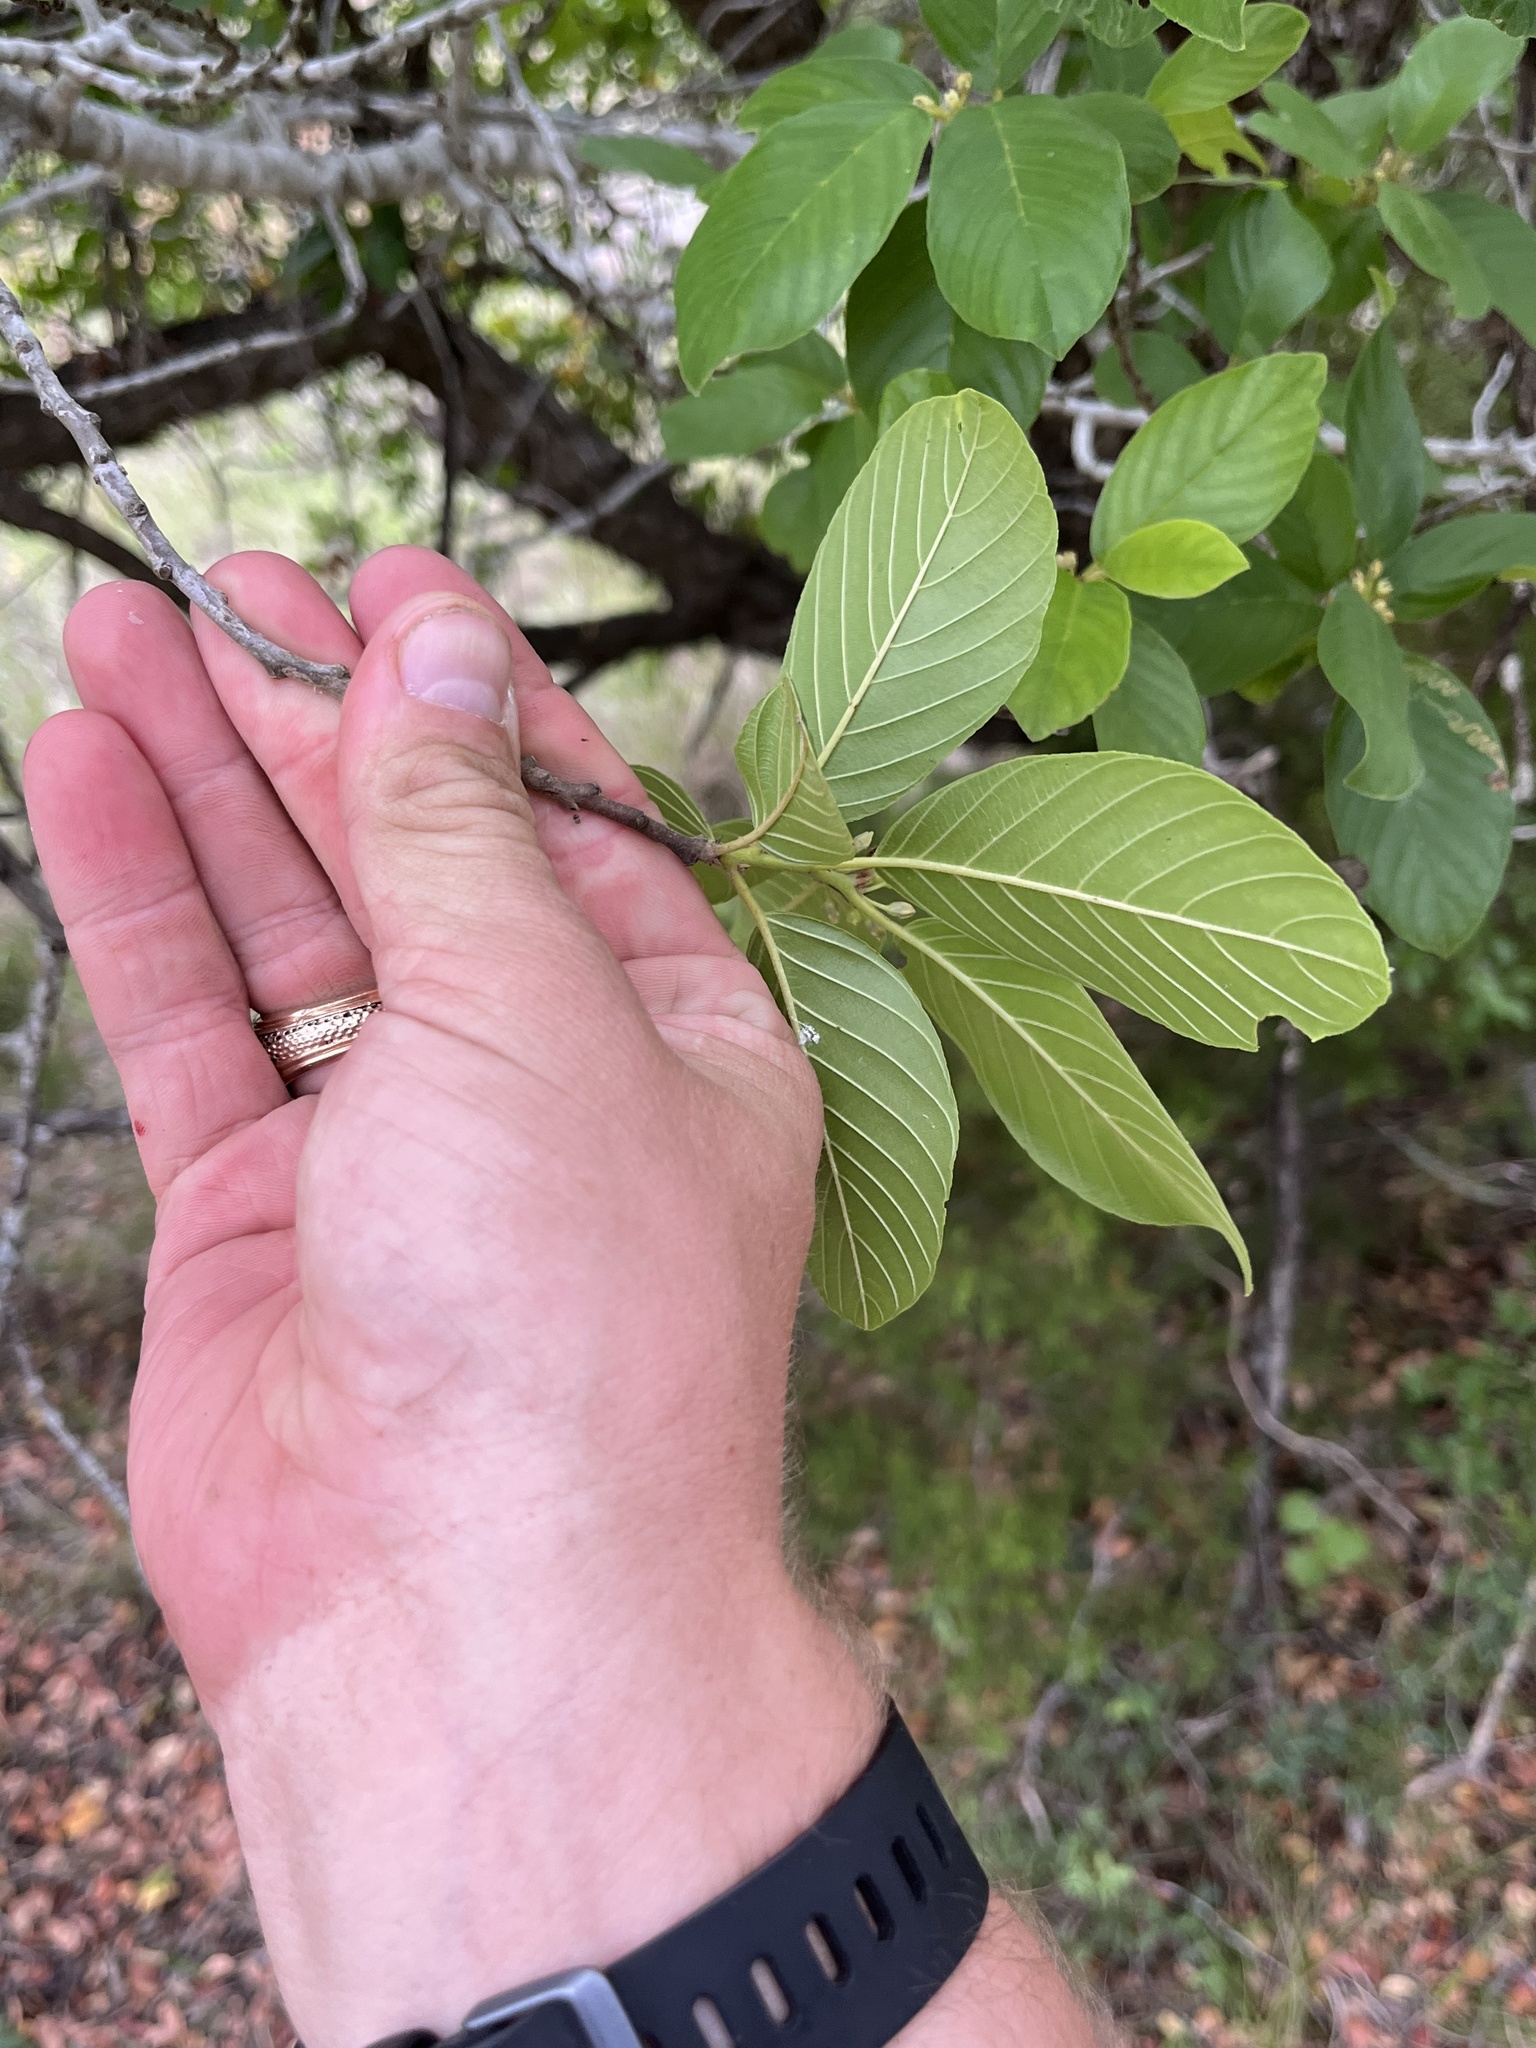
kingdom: Plantae
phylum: Tracheophyta
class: Magnoliopsida
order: Rosales
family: Rhamnaceae
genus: Frangula
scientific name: Frangula caroliniana
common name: Carolina buckthorn
